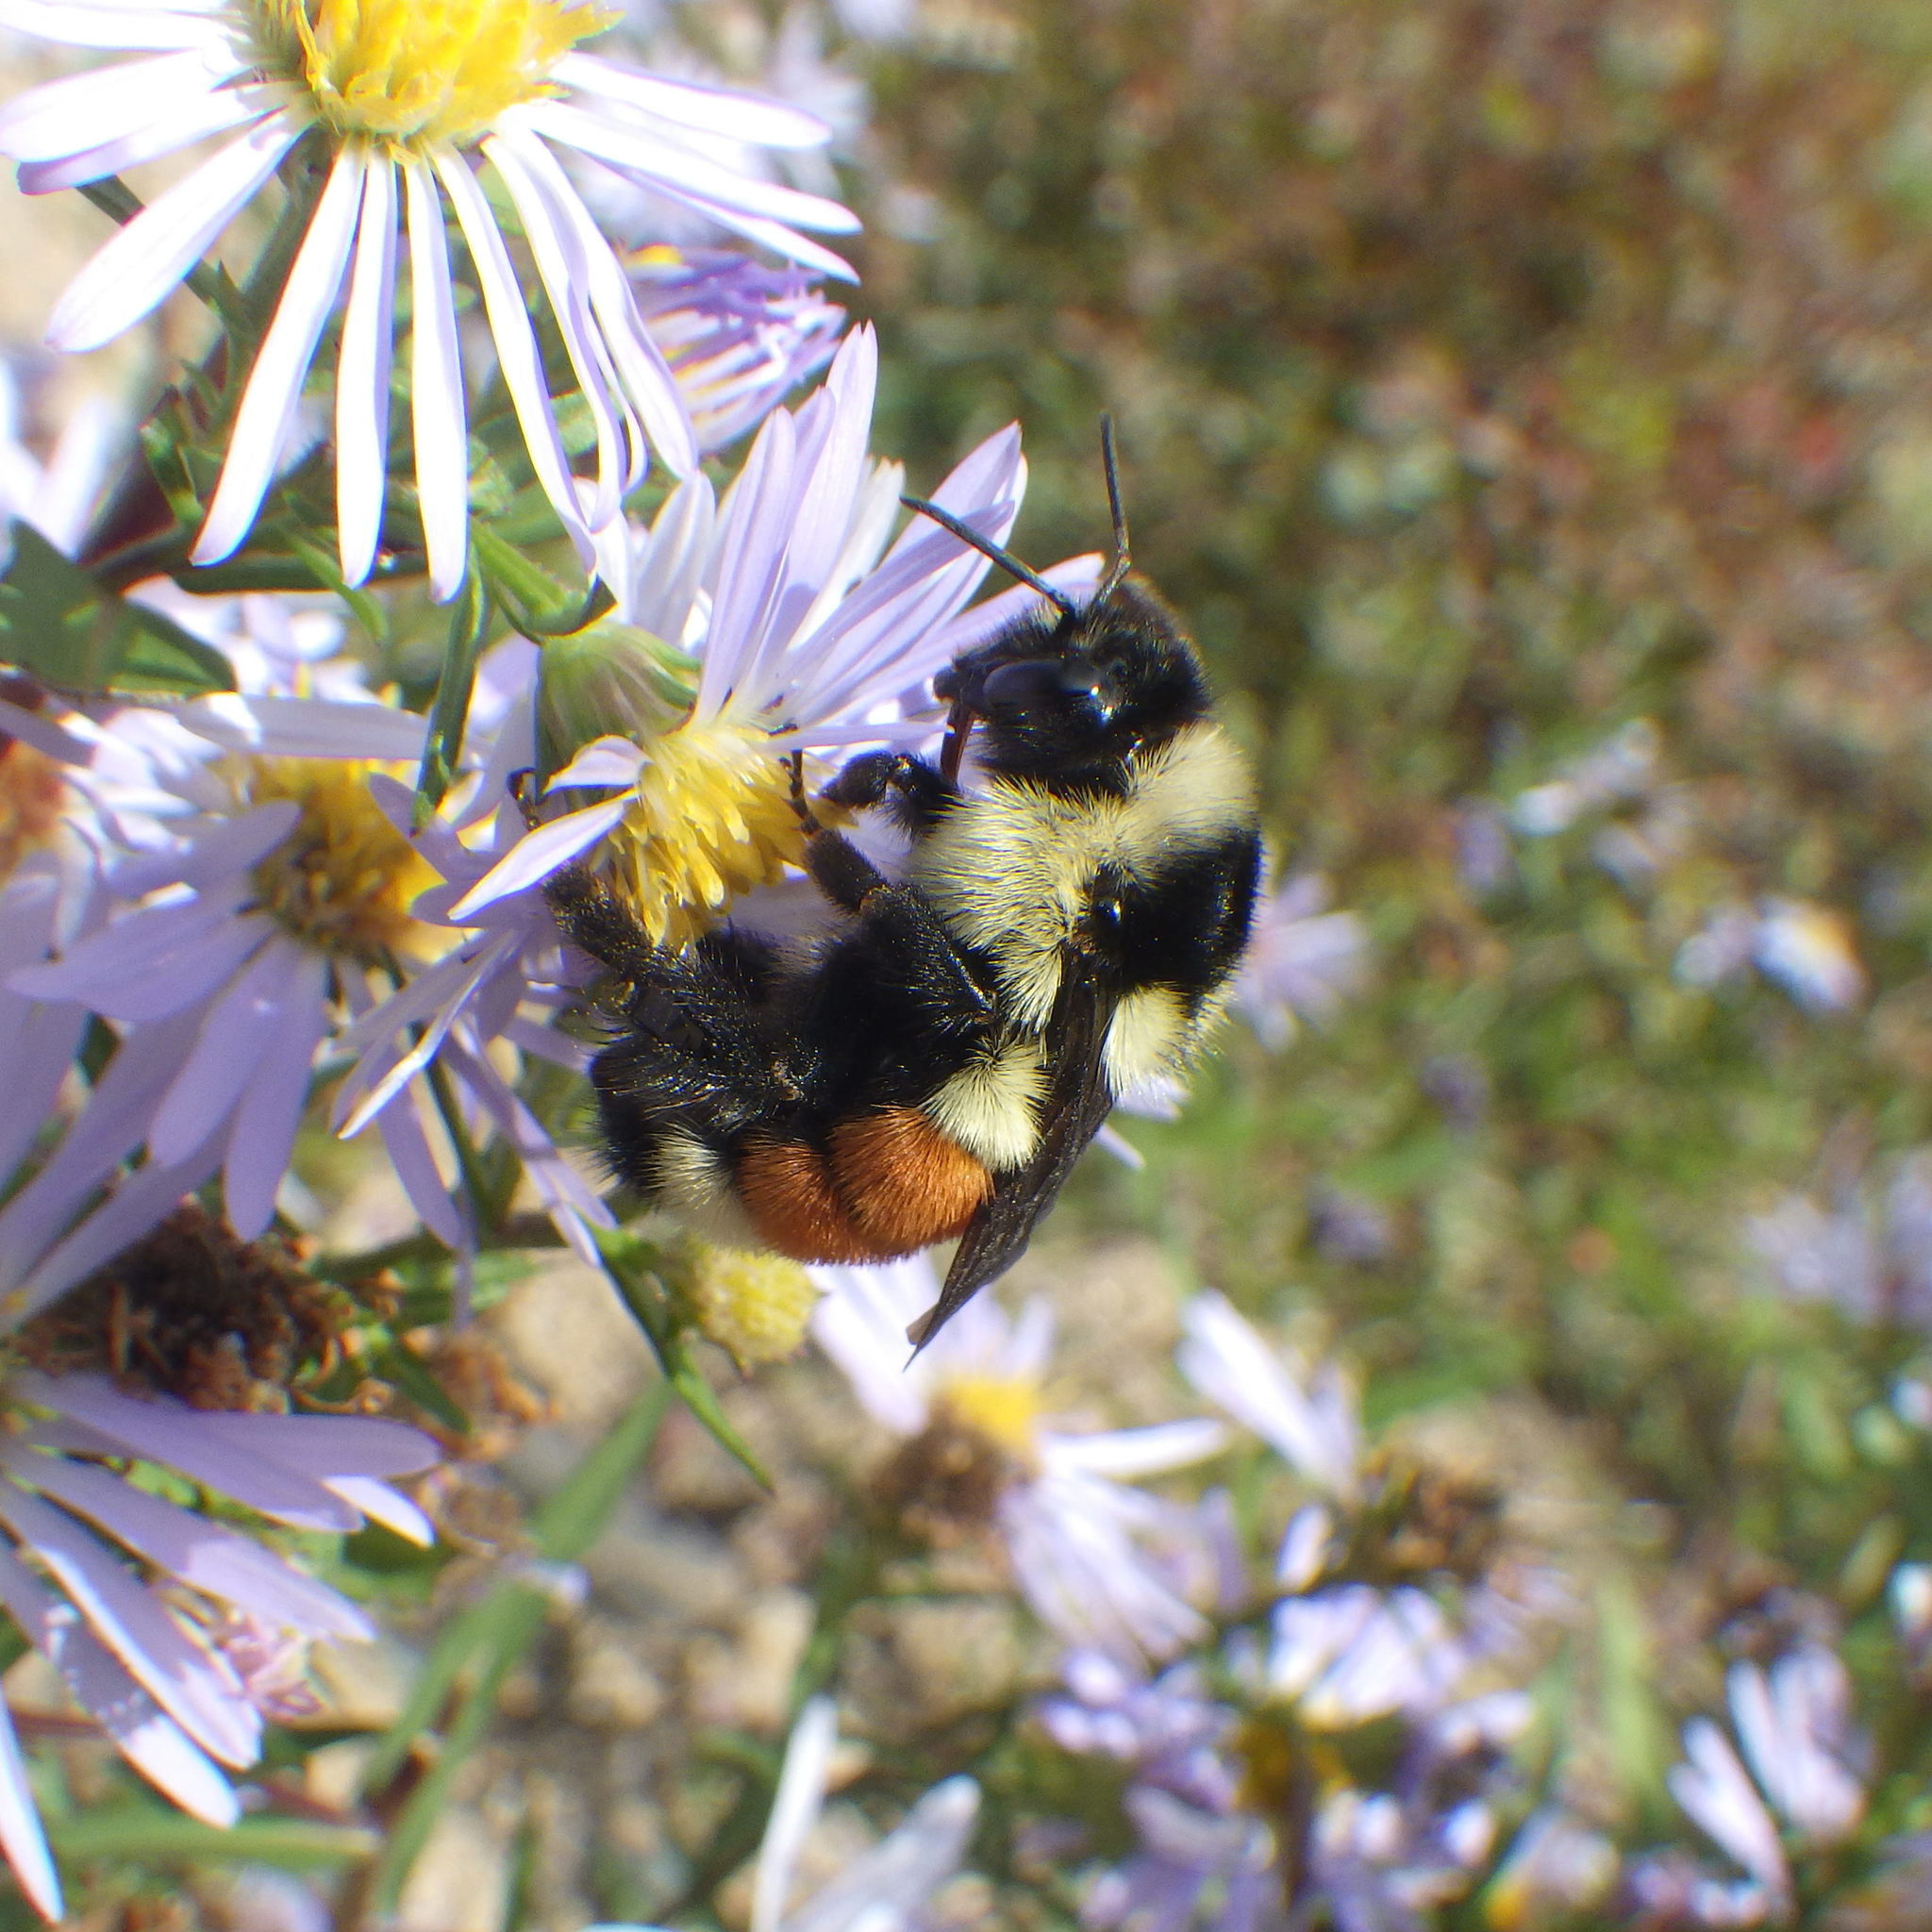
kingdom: Animalia
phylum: Arthropoda
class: Insecta
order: Hymenoptera
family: Apidae
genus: Bombus
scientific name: Bombus ternarius
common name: Tri-colored bumble bee
